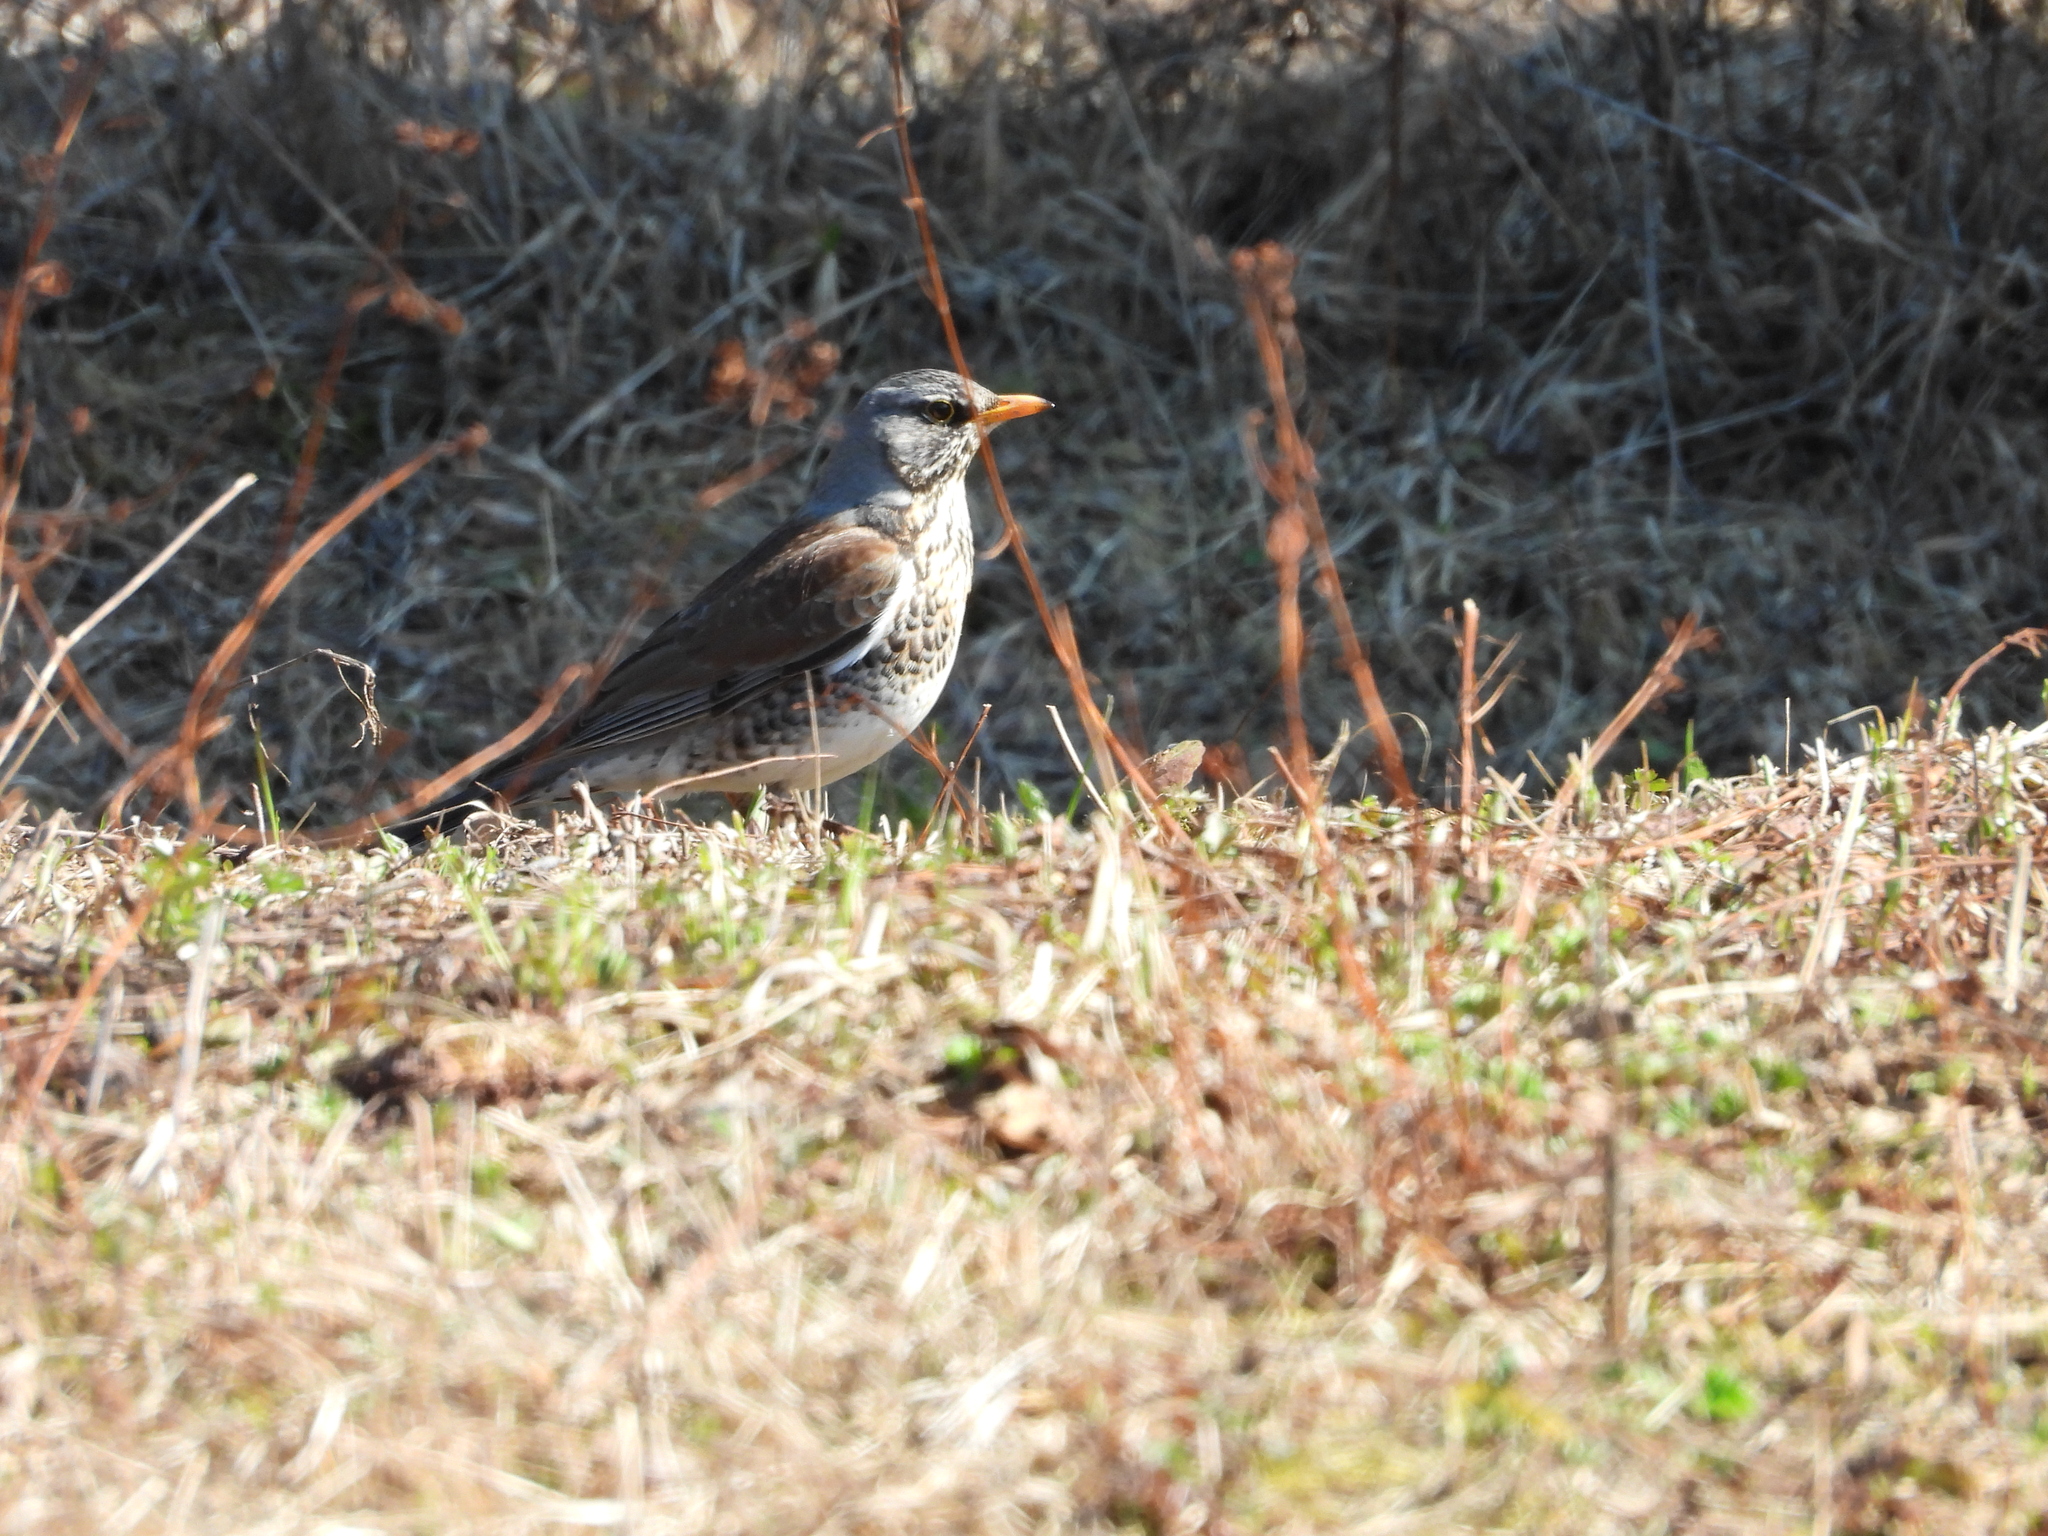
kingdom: Animalia
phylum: Chordata
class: Aves
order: Passeriformes
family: Turdidae
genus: Turdus
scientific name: Turdus pilaris
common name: Fieldfare
